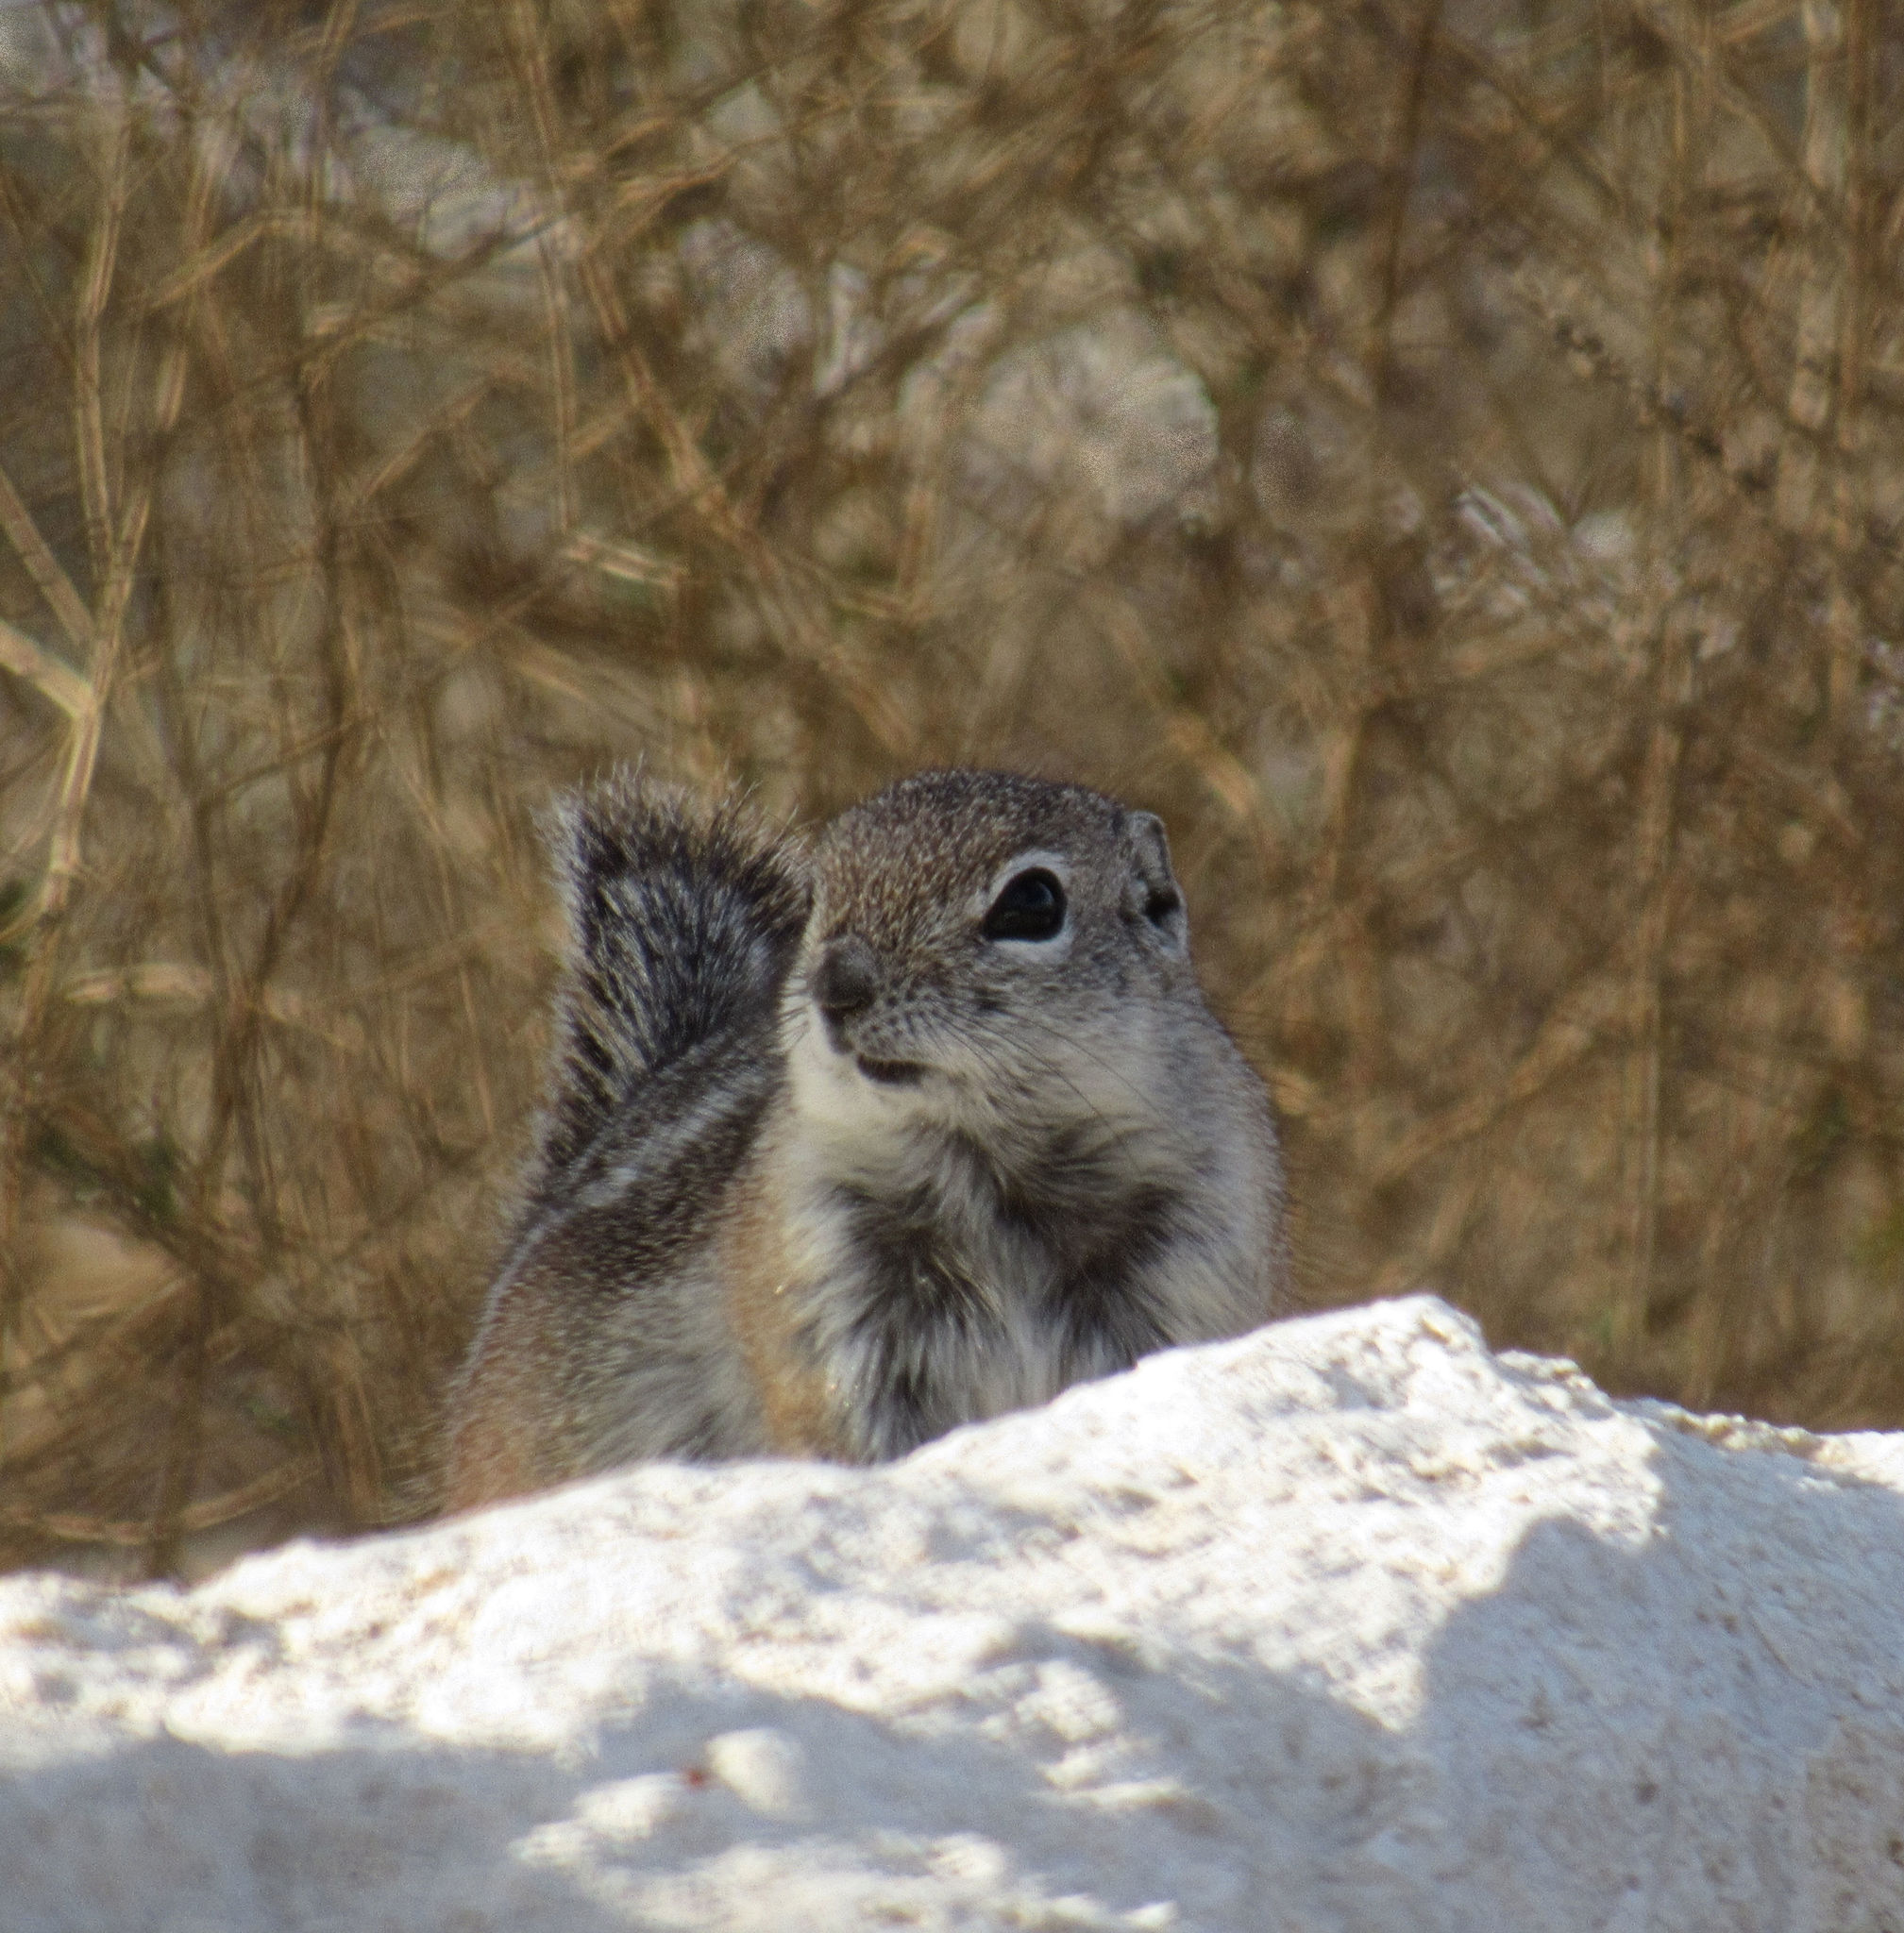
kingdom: Animalia
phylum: Chordata
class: Mammalia
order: Rodentia
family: Sciuridae
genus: Ammospermophilus
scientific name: Ammospermophilus leucurus
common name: White-tailed antelope squirrel
